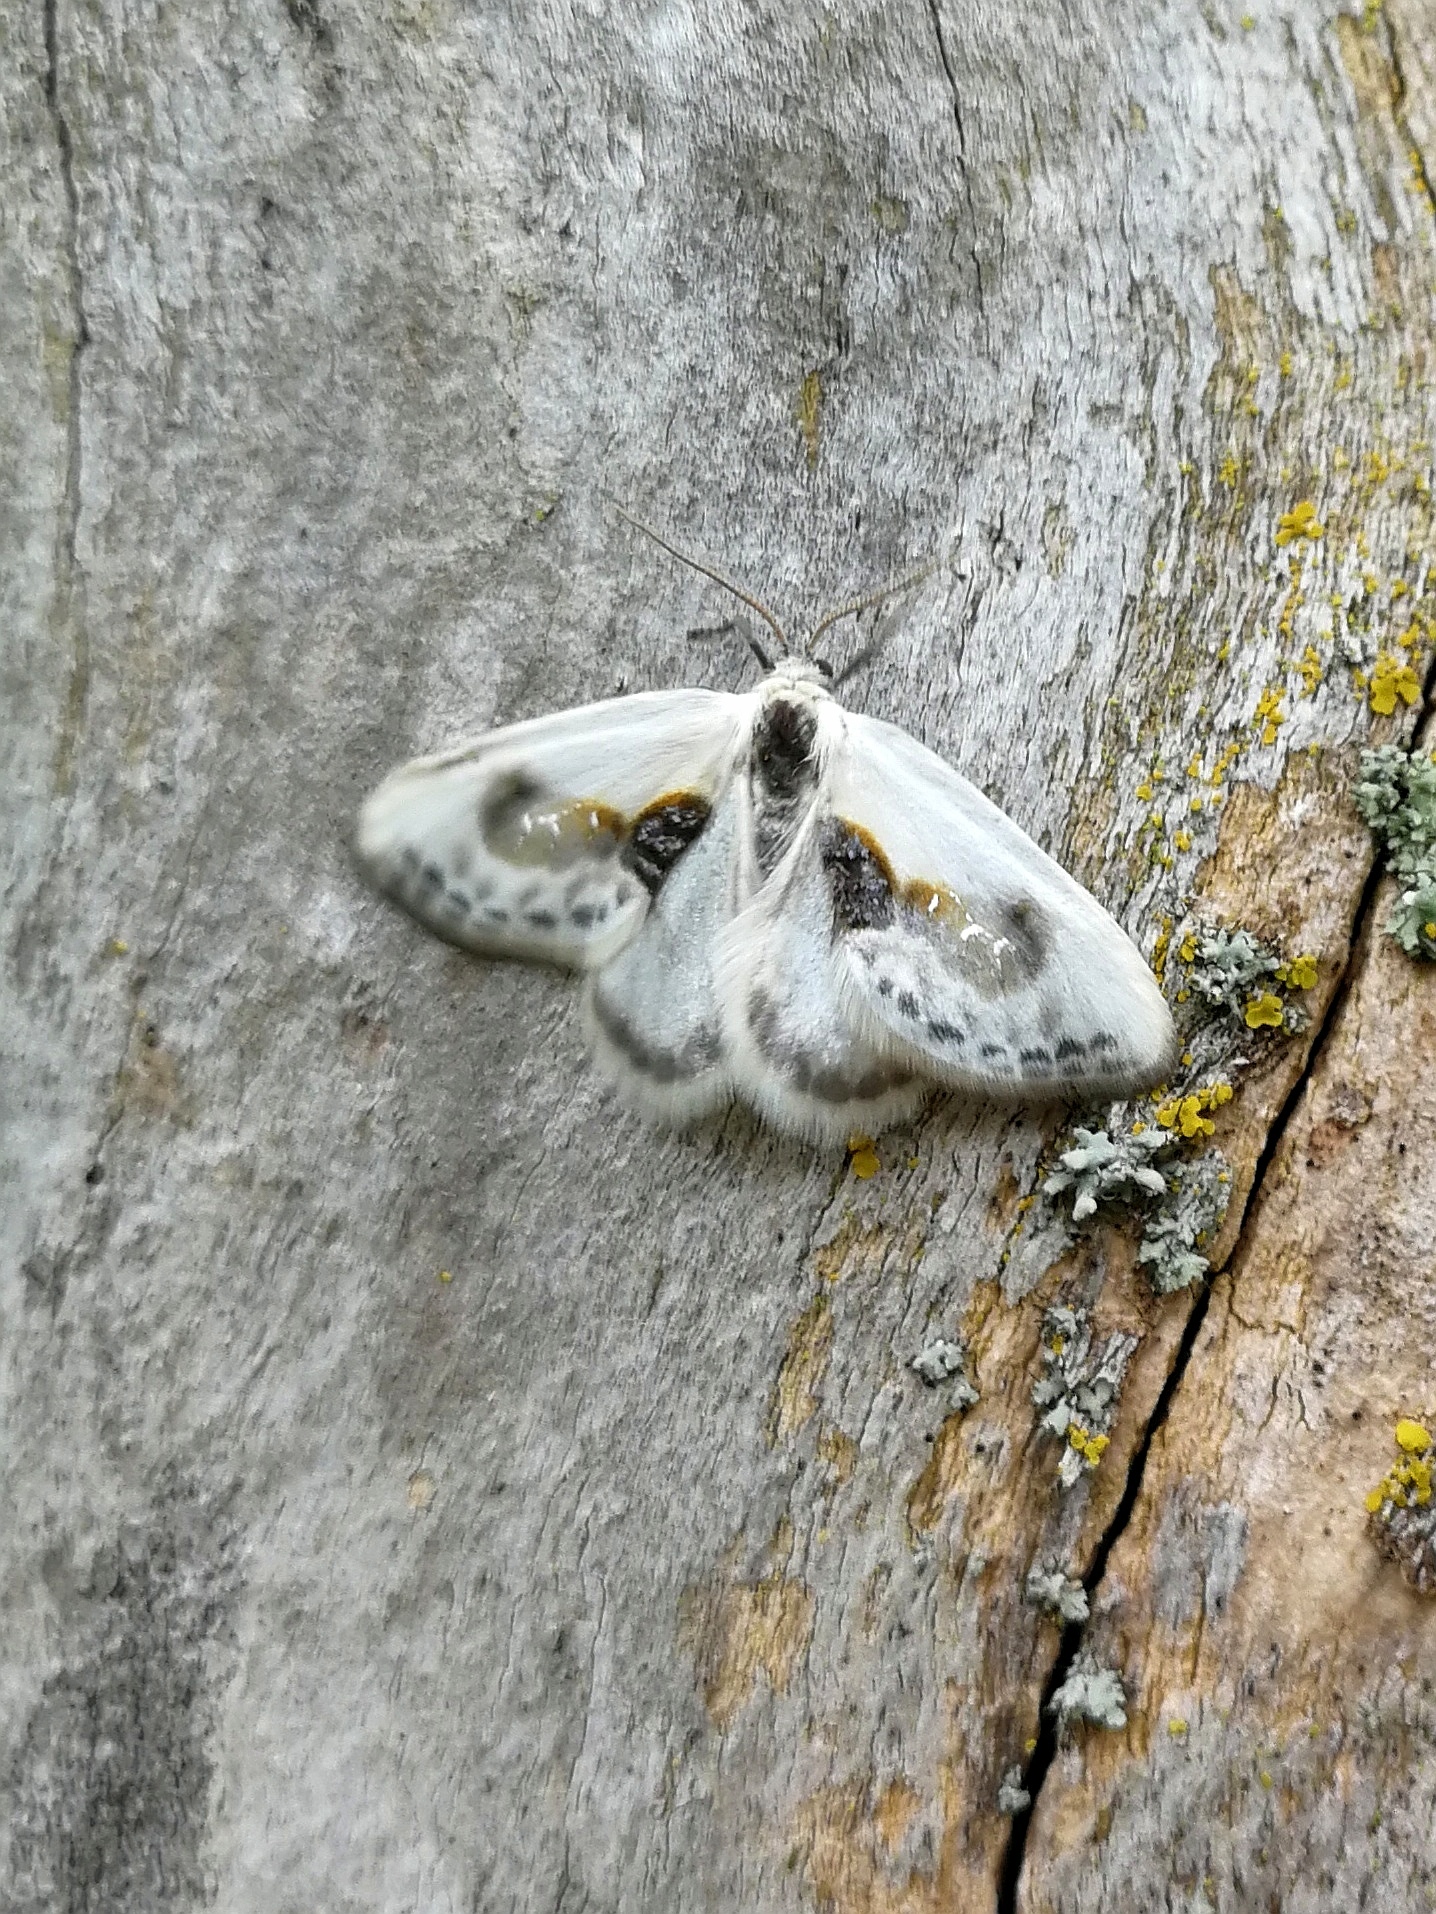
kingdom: Animalia
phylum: Arthropoda
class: Insecta
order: Lepidoptera
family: Drepanidae
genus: Cilix
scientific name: Cilix glaucata
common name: Chinese character
